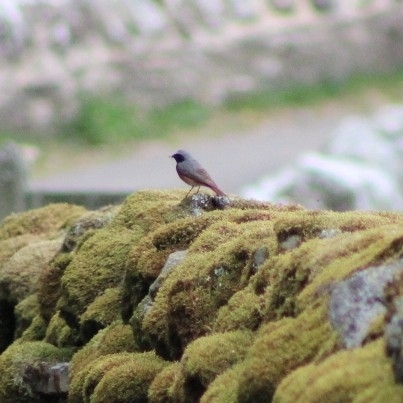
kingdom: Animalia
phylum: Chordata
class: Aves
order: Passeriformes
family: Muscicapidae
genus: Phoenicurus
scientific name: Phoenicurus phoenicurus
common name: Common redstart
